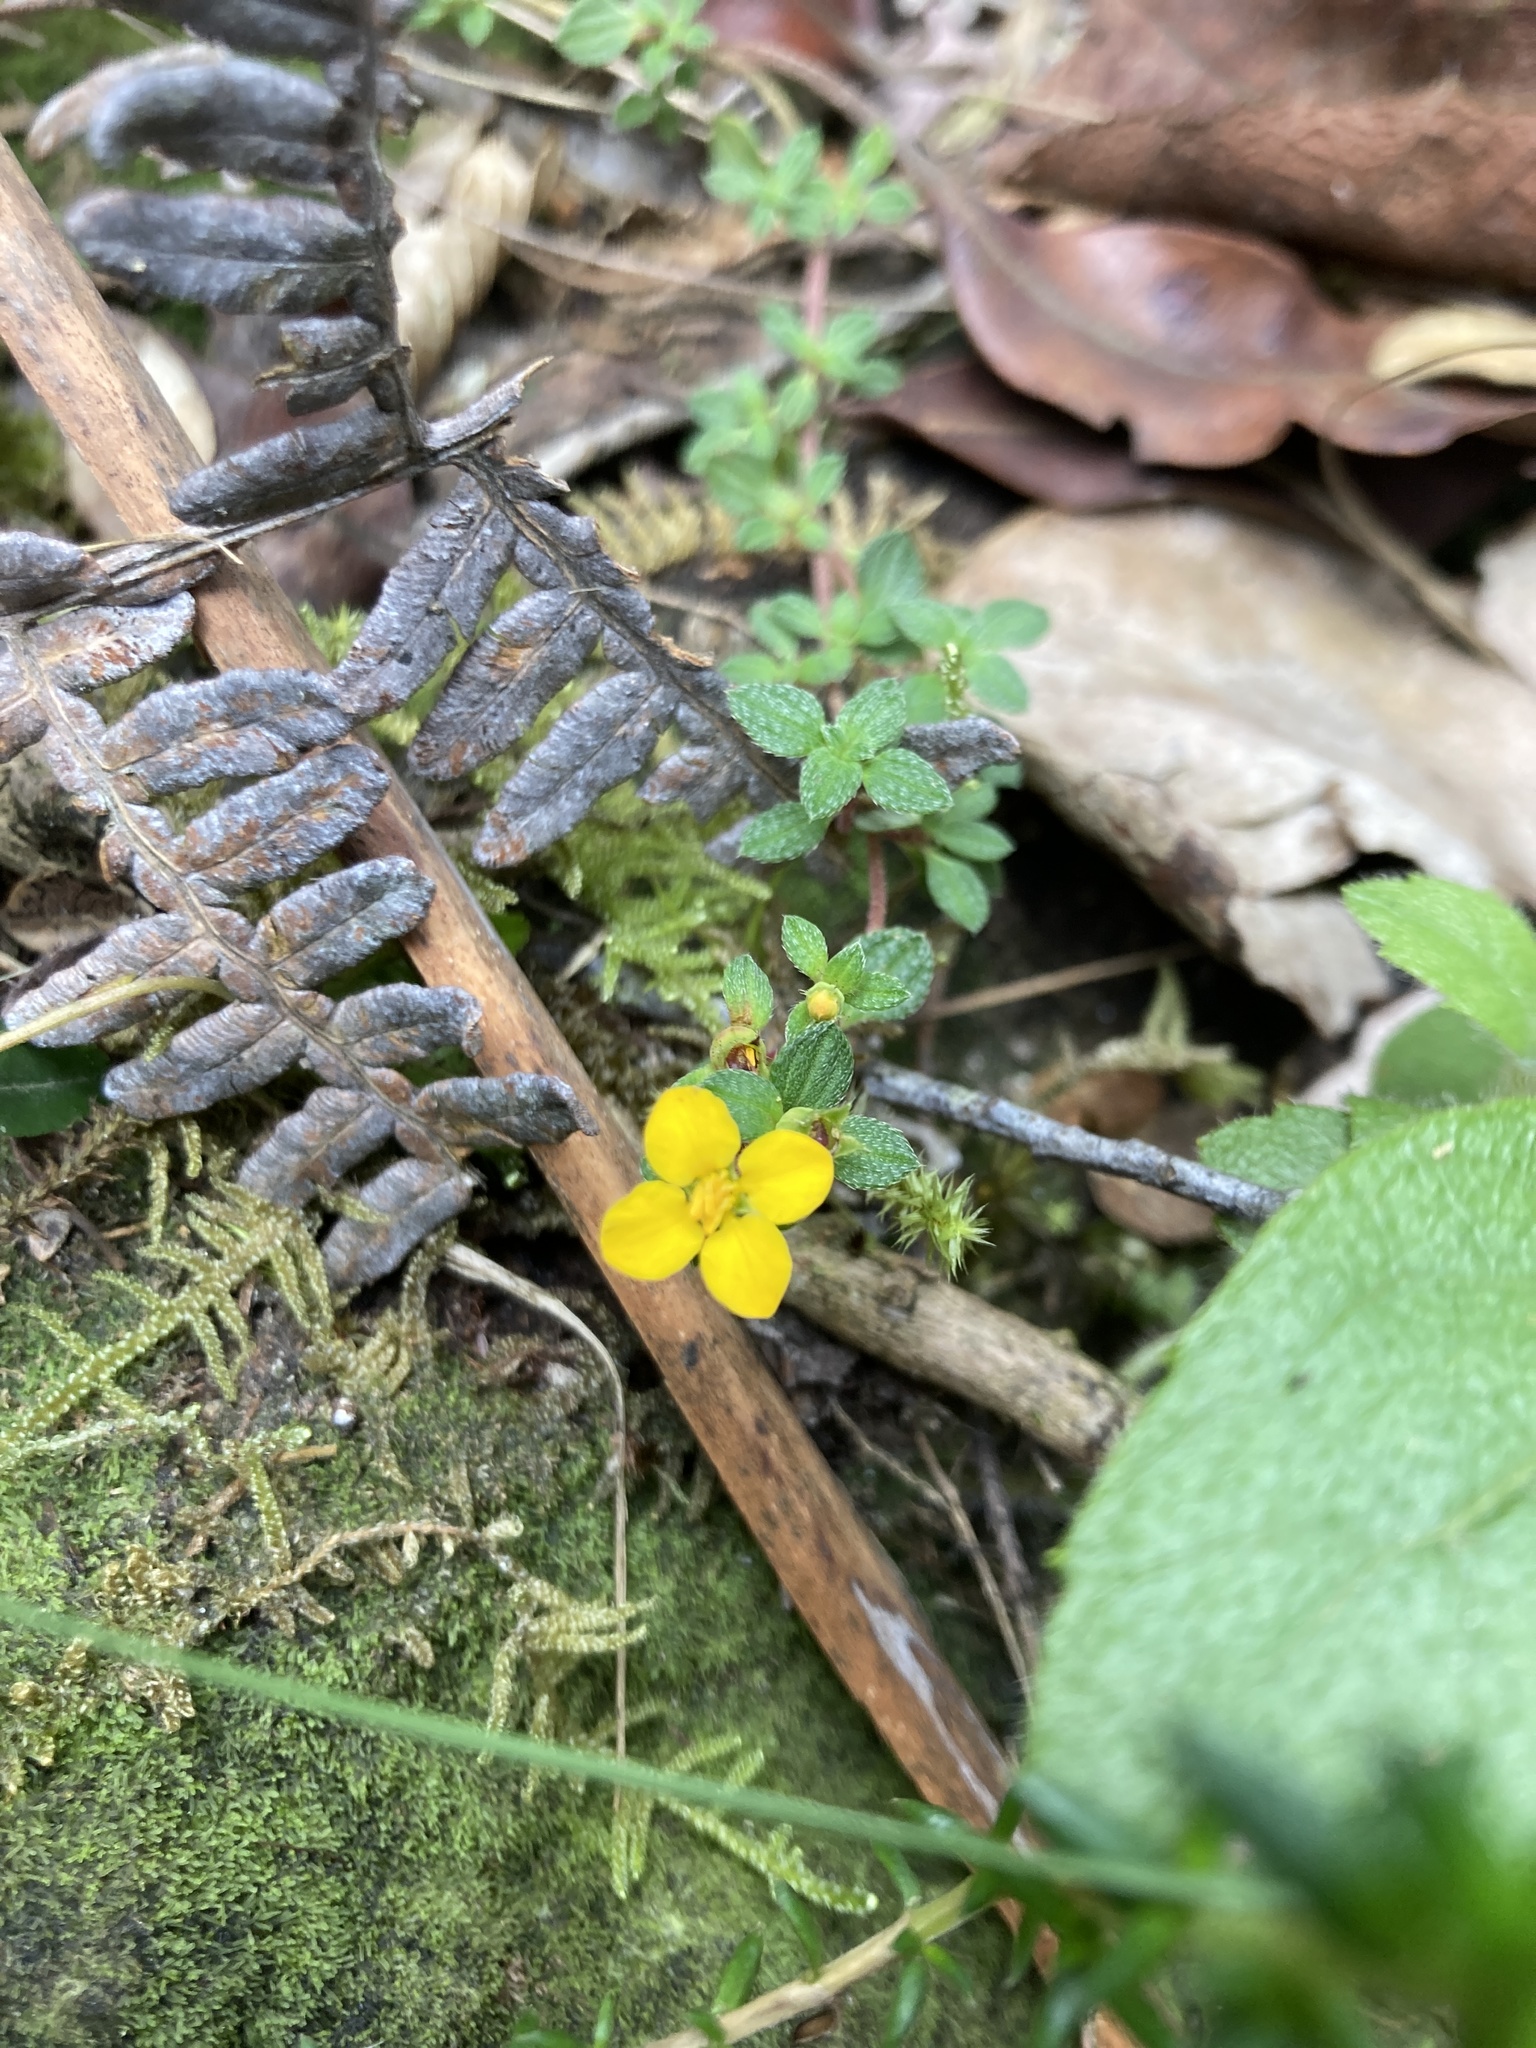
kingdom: Plantae
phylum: Tracheophyta
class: Magnoliopsida
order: Myrtales
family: Melastomataceae
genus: Chaetolepis
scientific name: Chaetolepis microphylla
